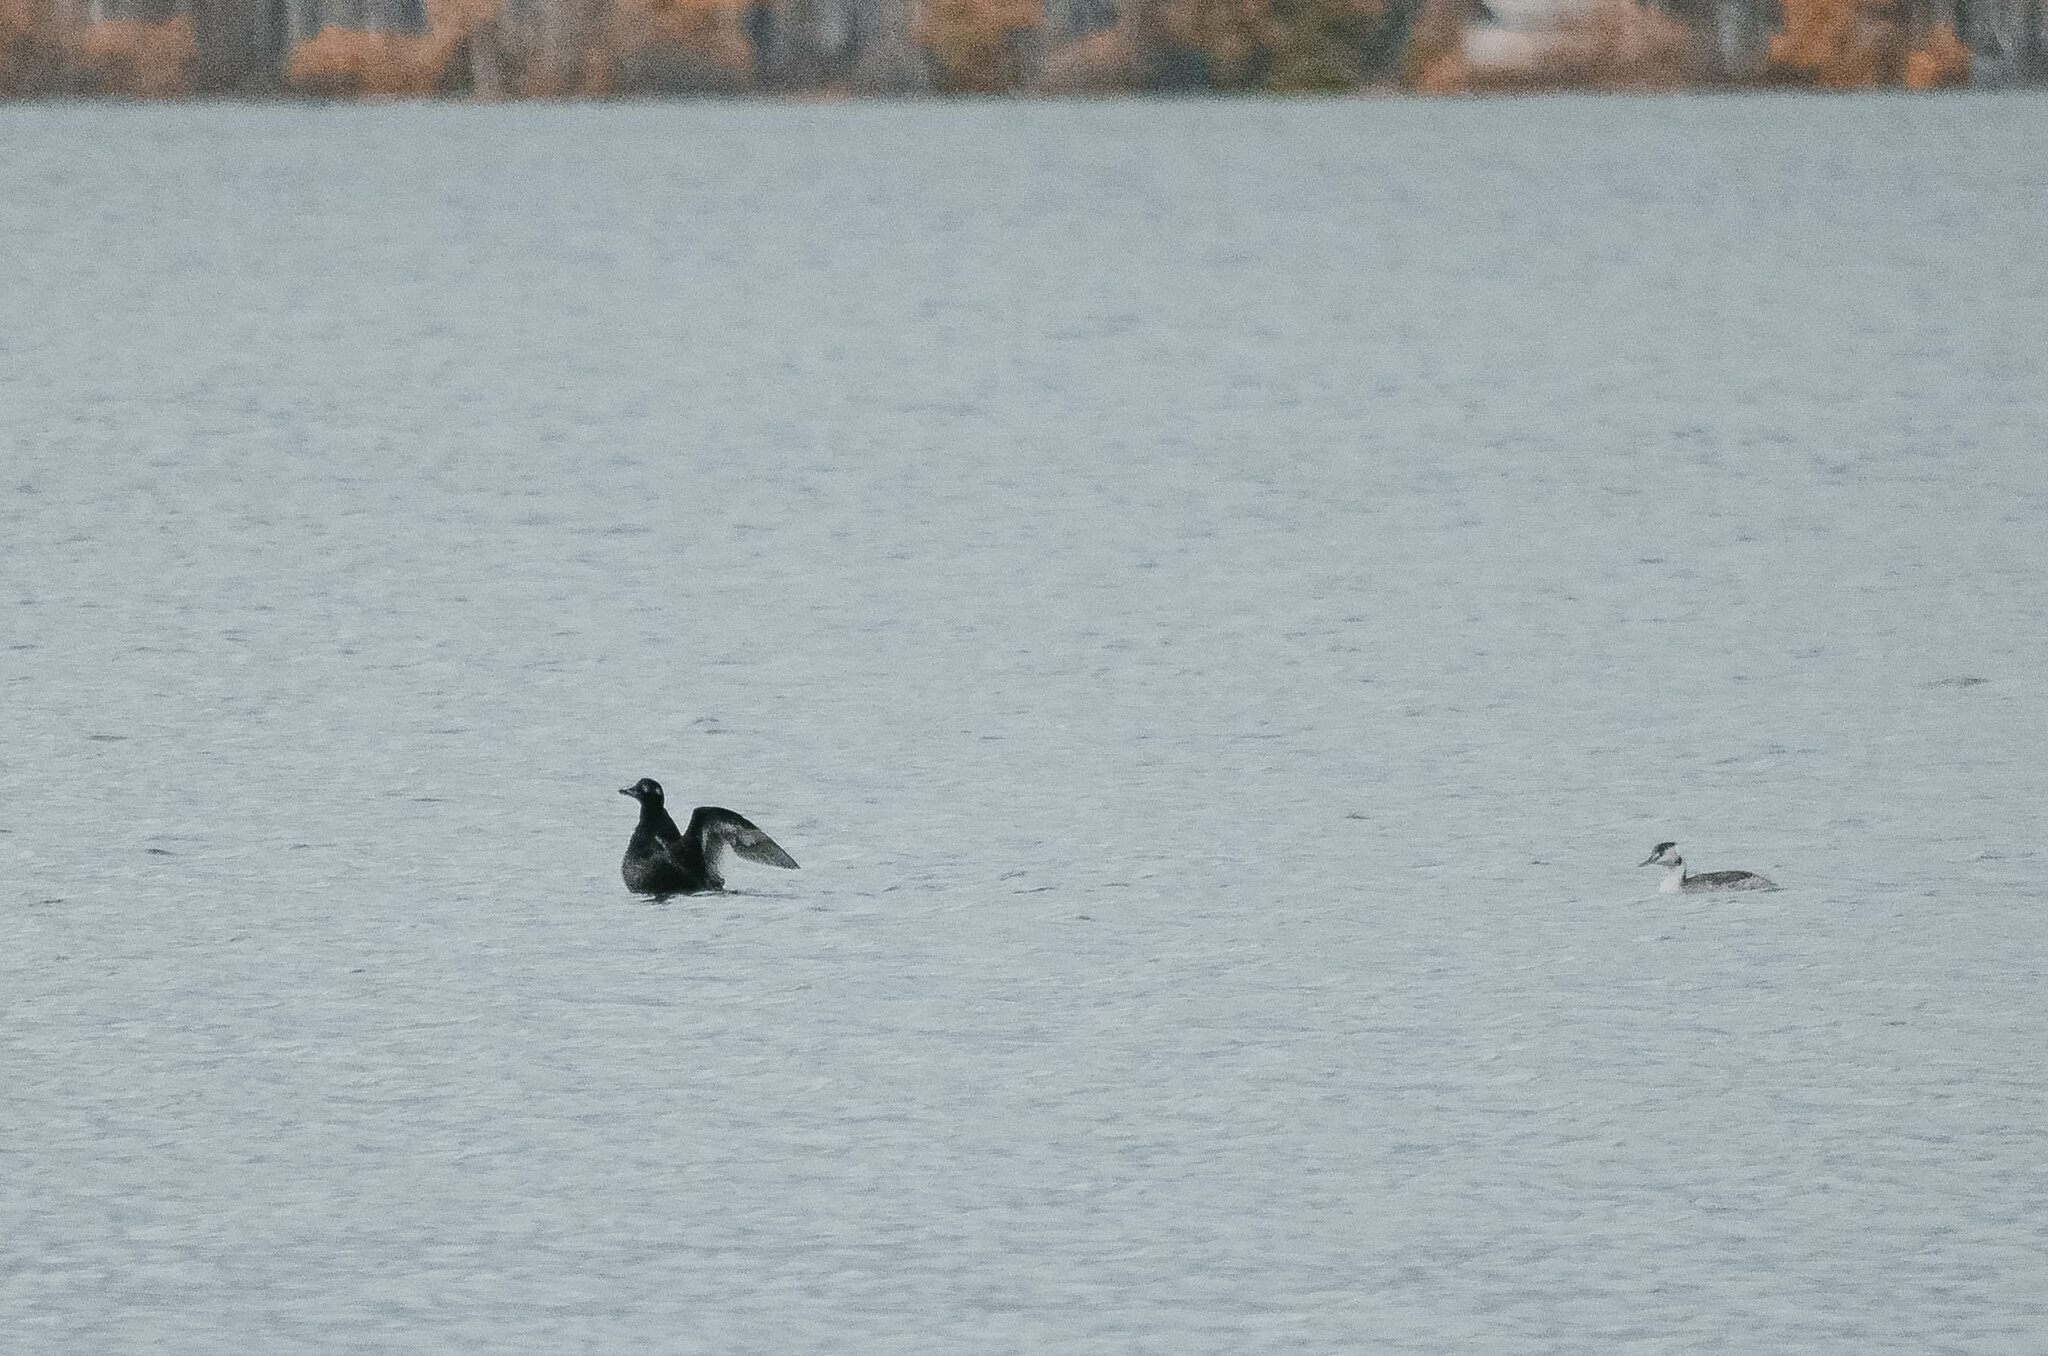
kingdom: Animalia
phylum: Chordata
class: Aves
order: Anseriformes
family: Anatidae
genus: Melanitta
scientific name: Melanitta fusca
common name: Velvet scoter
